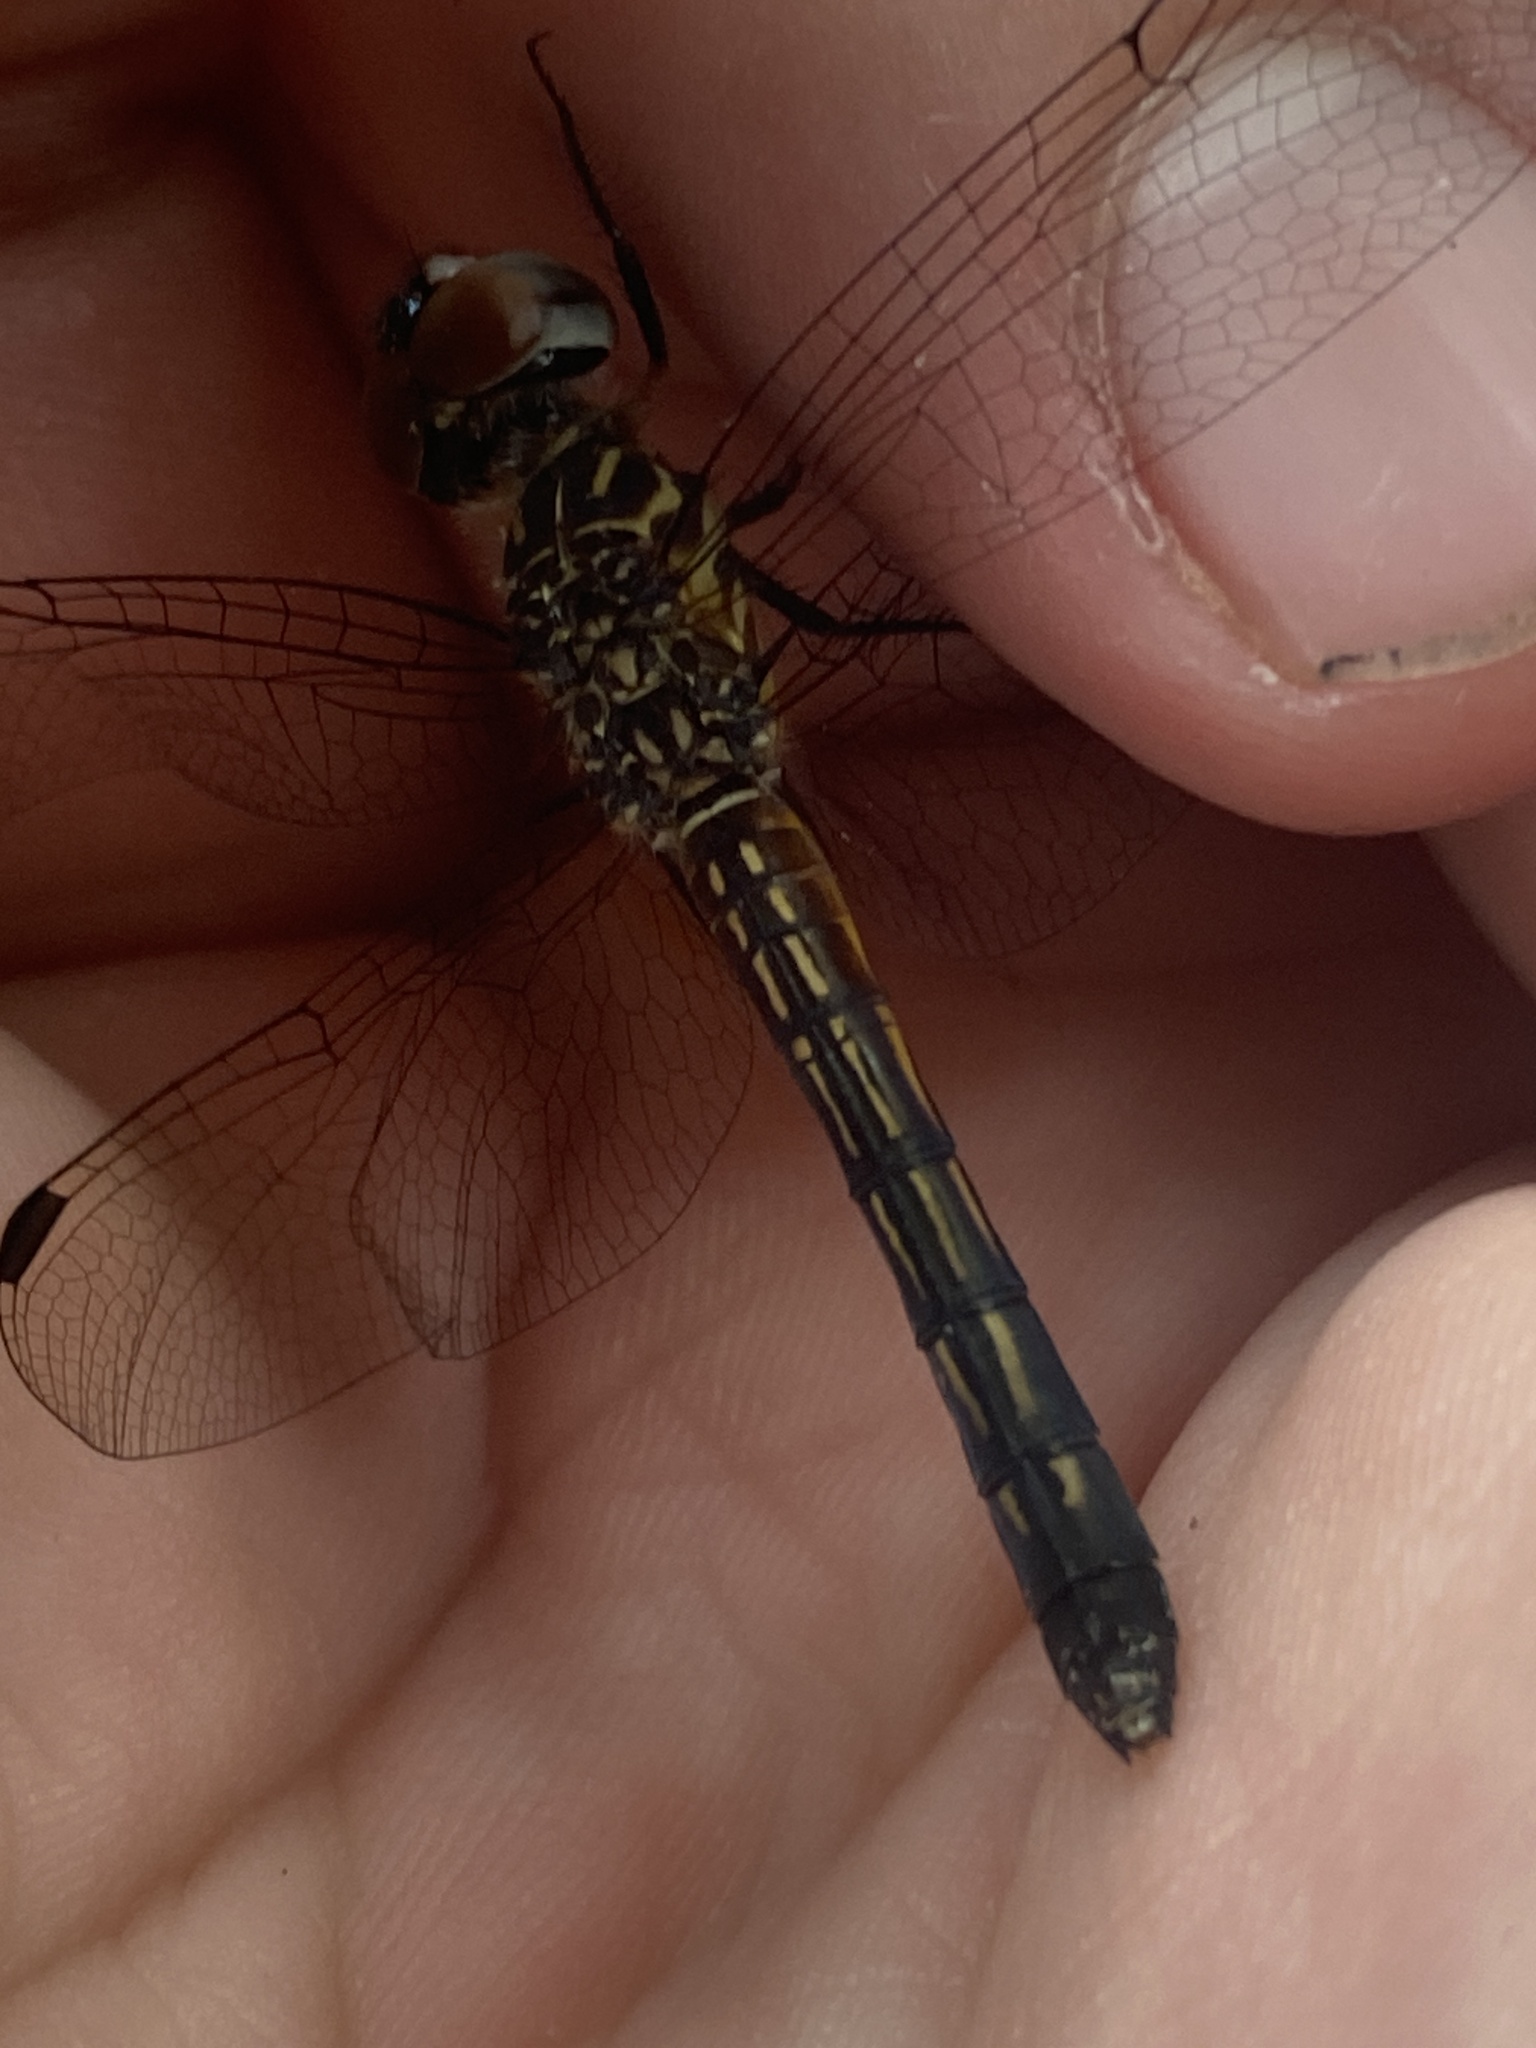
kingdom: Animalia
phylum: Arthropoda
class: Insecta
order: Odonata
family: Libellulidae
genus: Pachydiplax
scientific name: Pachydiplax longipennis
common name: Blue dasher
